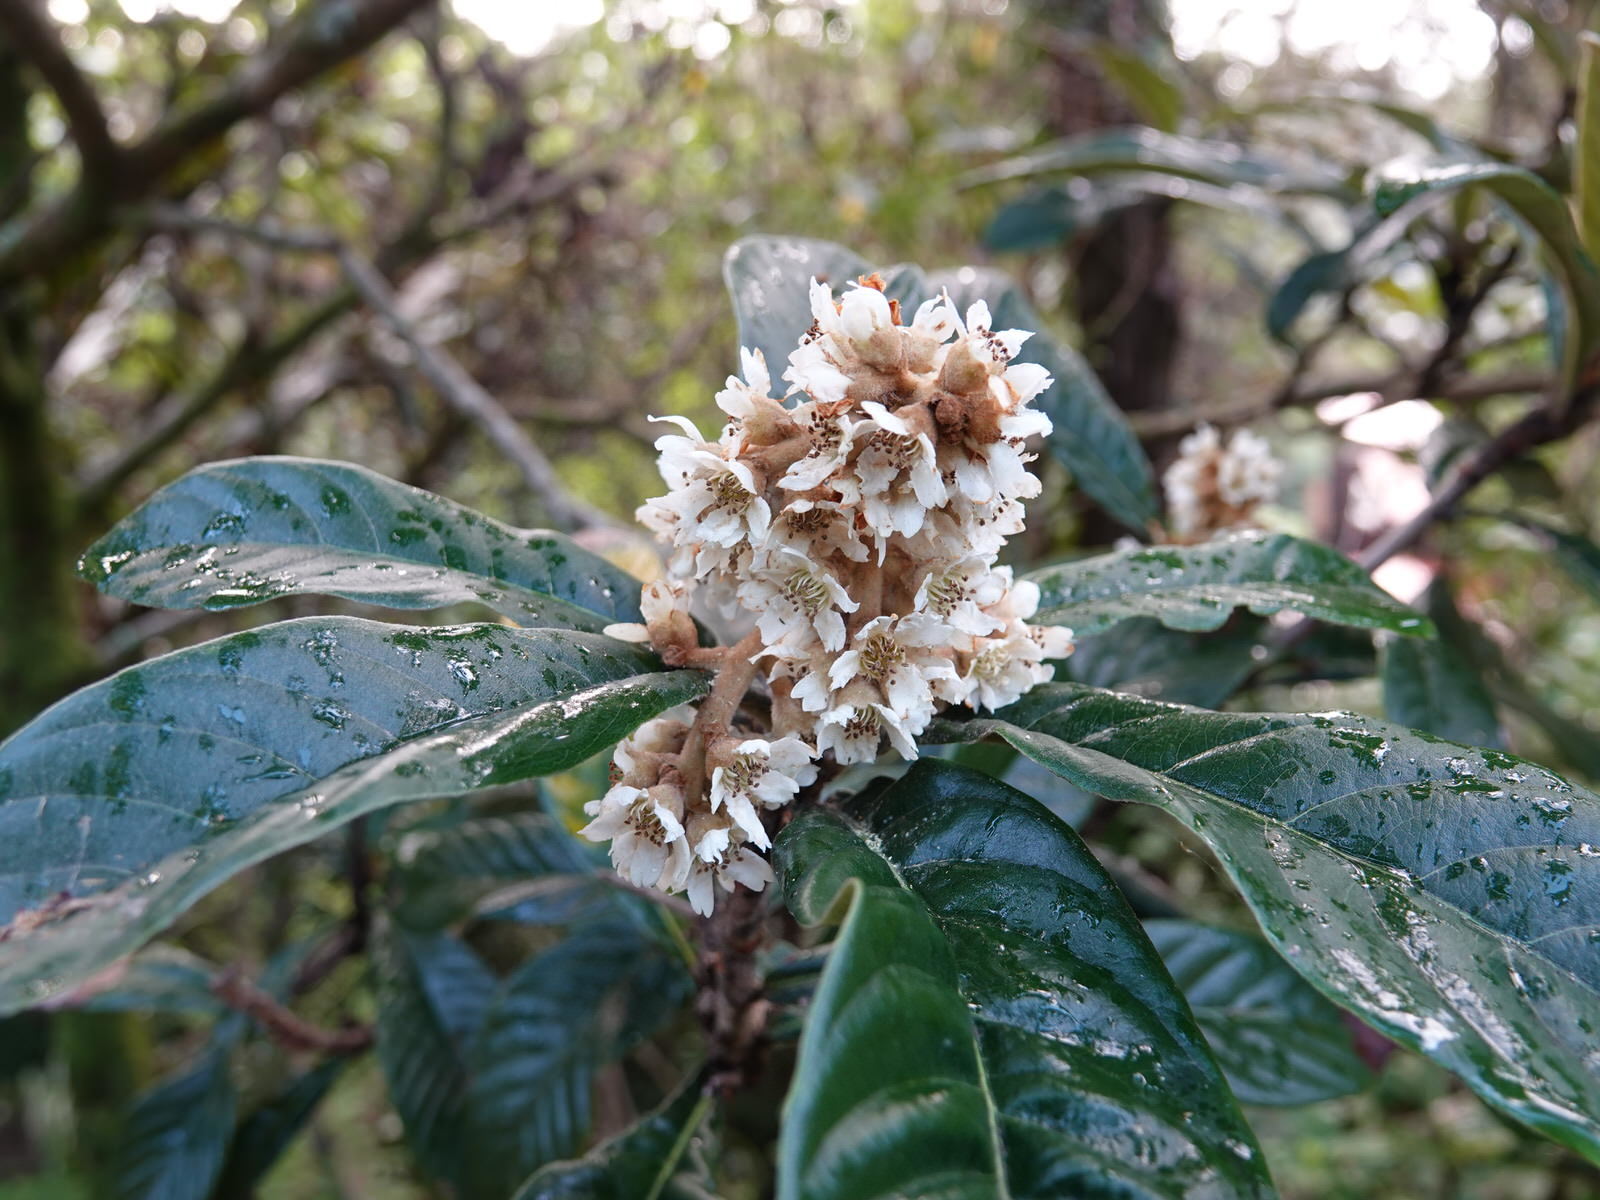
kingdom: Plantae
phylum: Tracheophyta
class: Magnoliopsida
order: Rosales
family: Rosaceae
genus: Rhaphiolepis
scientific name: Rhaphiolepis bibas
